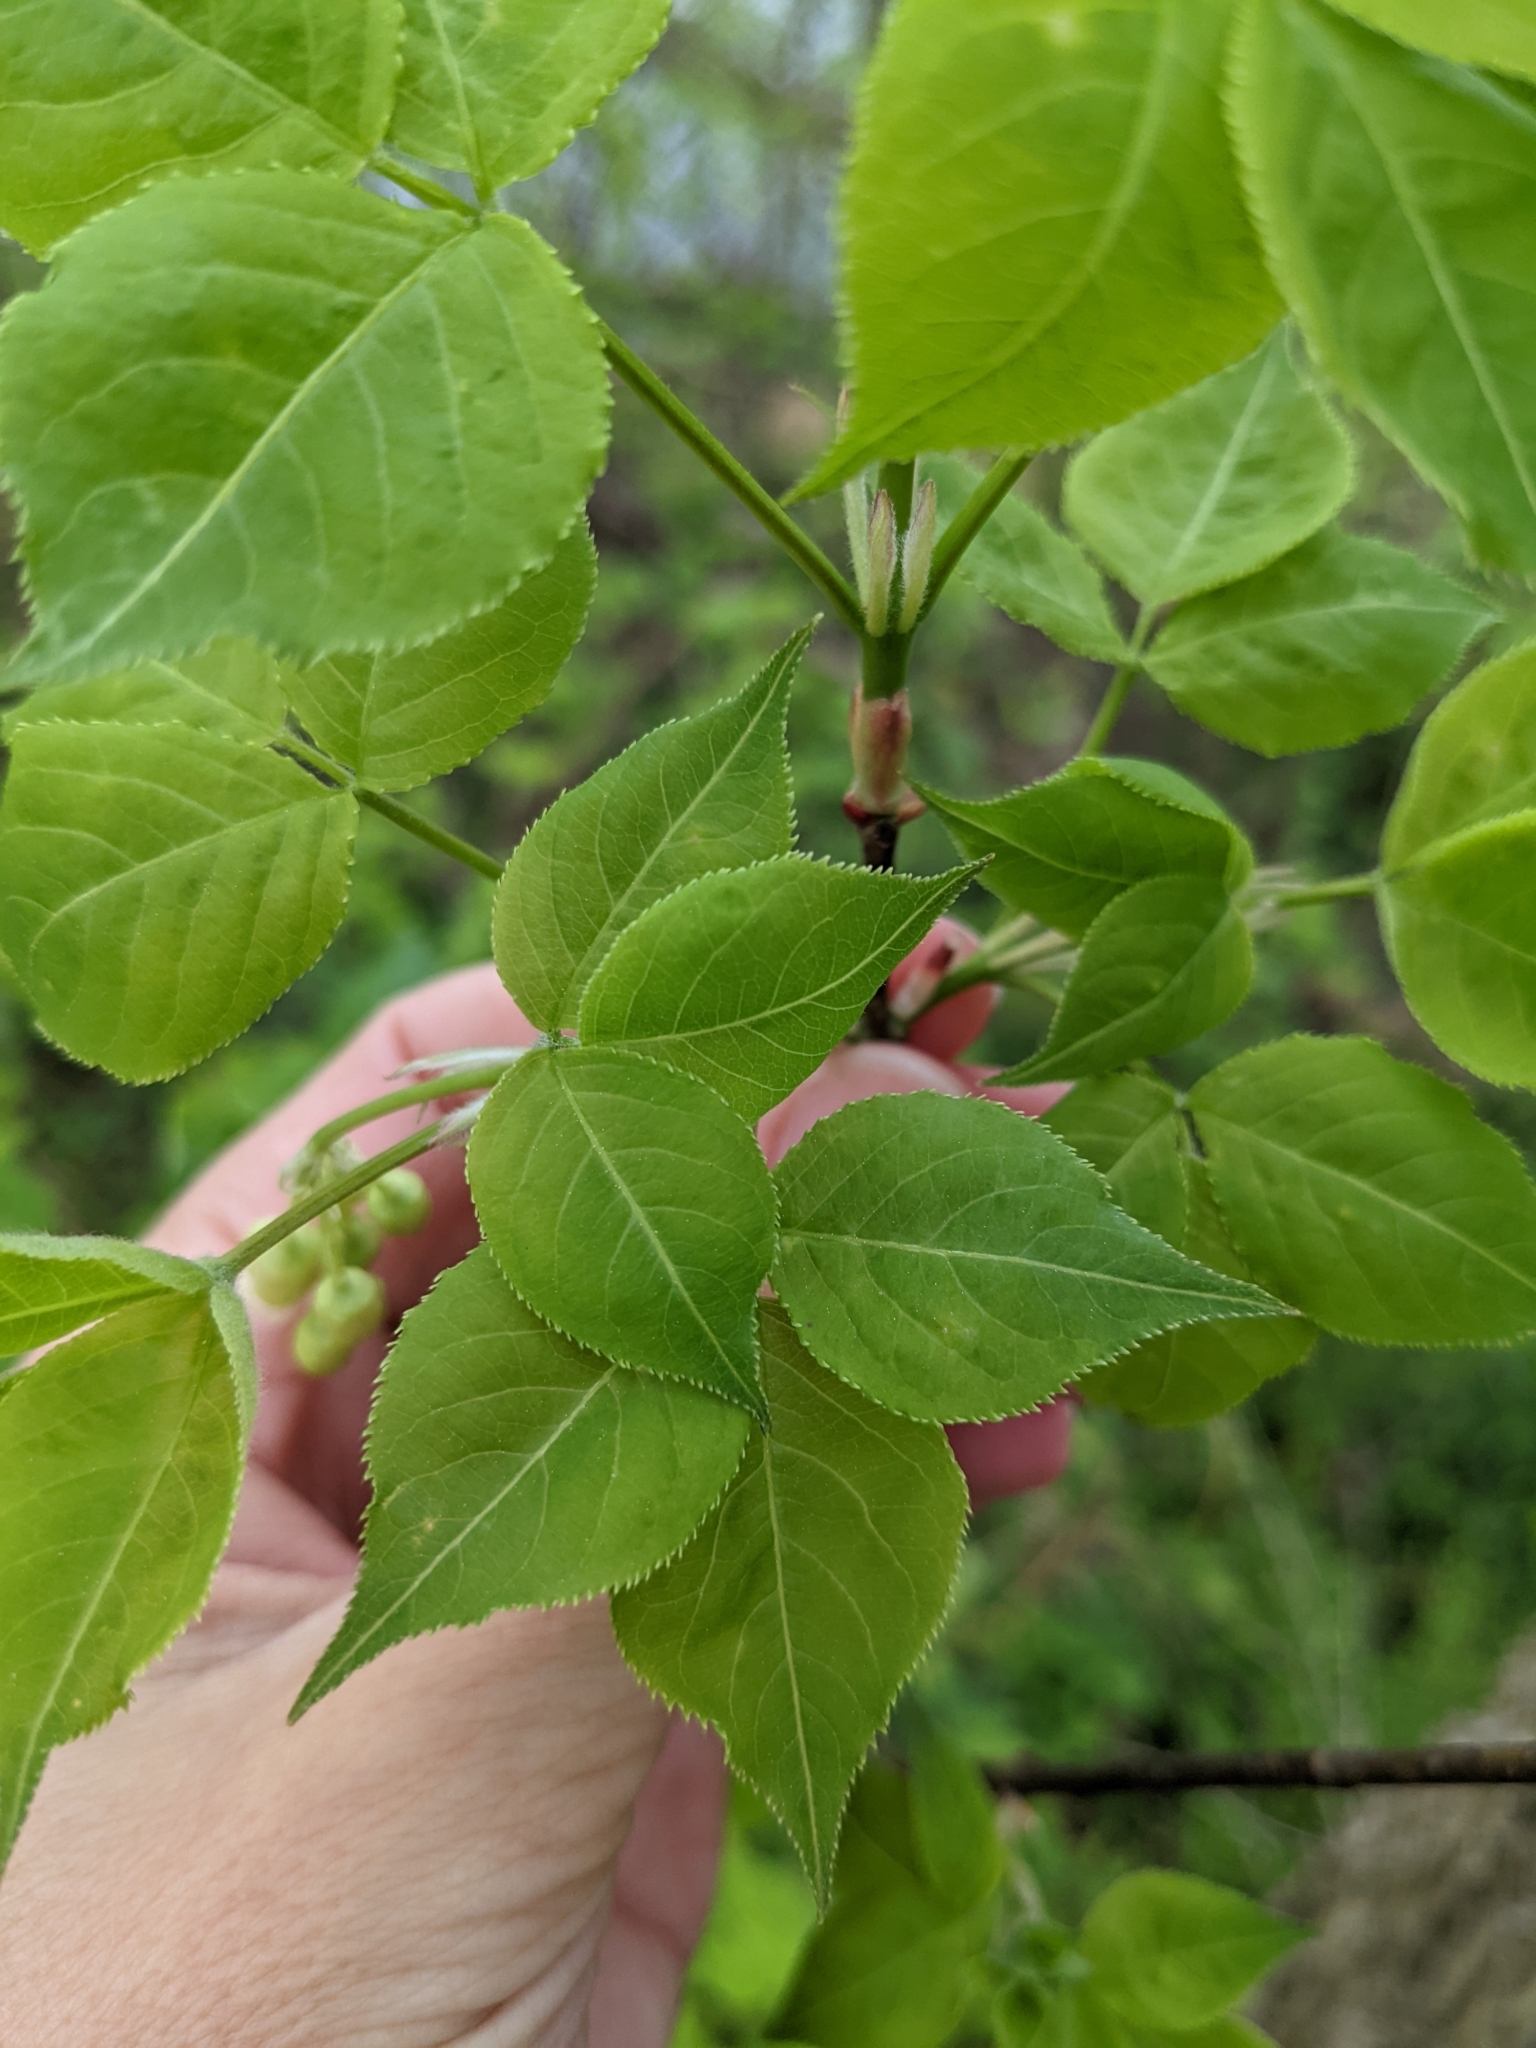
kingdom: Plantae
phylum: Tracheophyta
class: Magnoliopsida
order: Crossosomatales
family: Staphyleaceae
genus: Staphylea
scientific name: Staphylea trifolia
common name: American bladdernut
